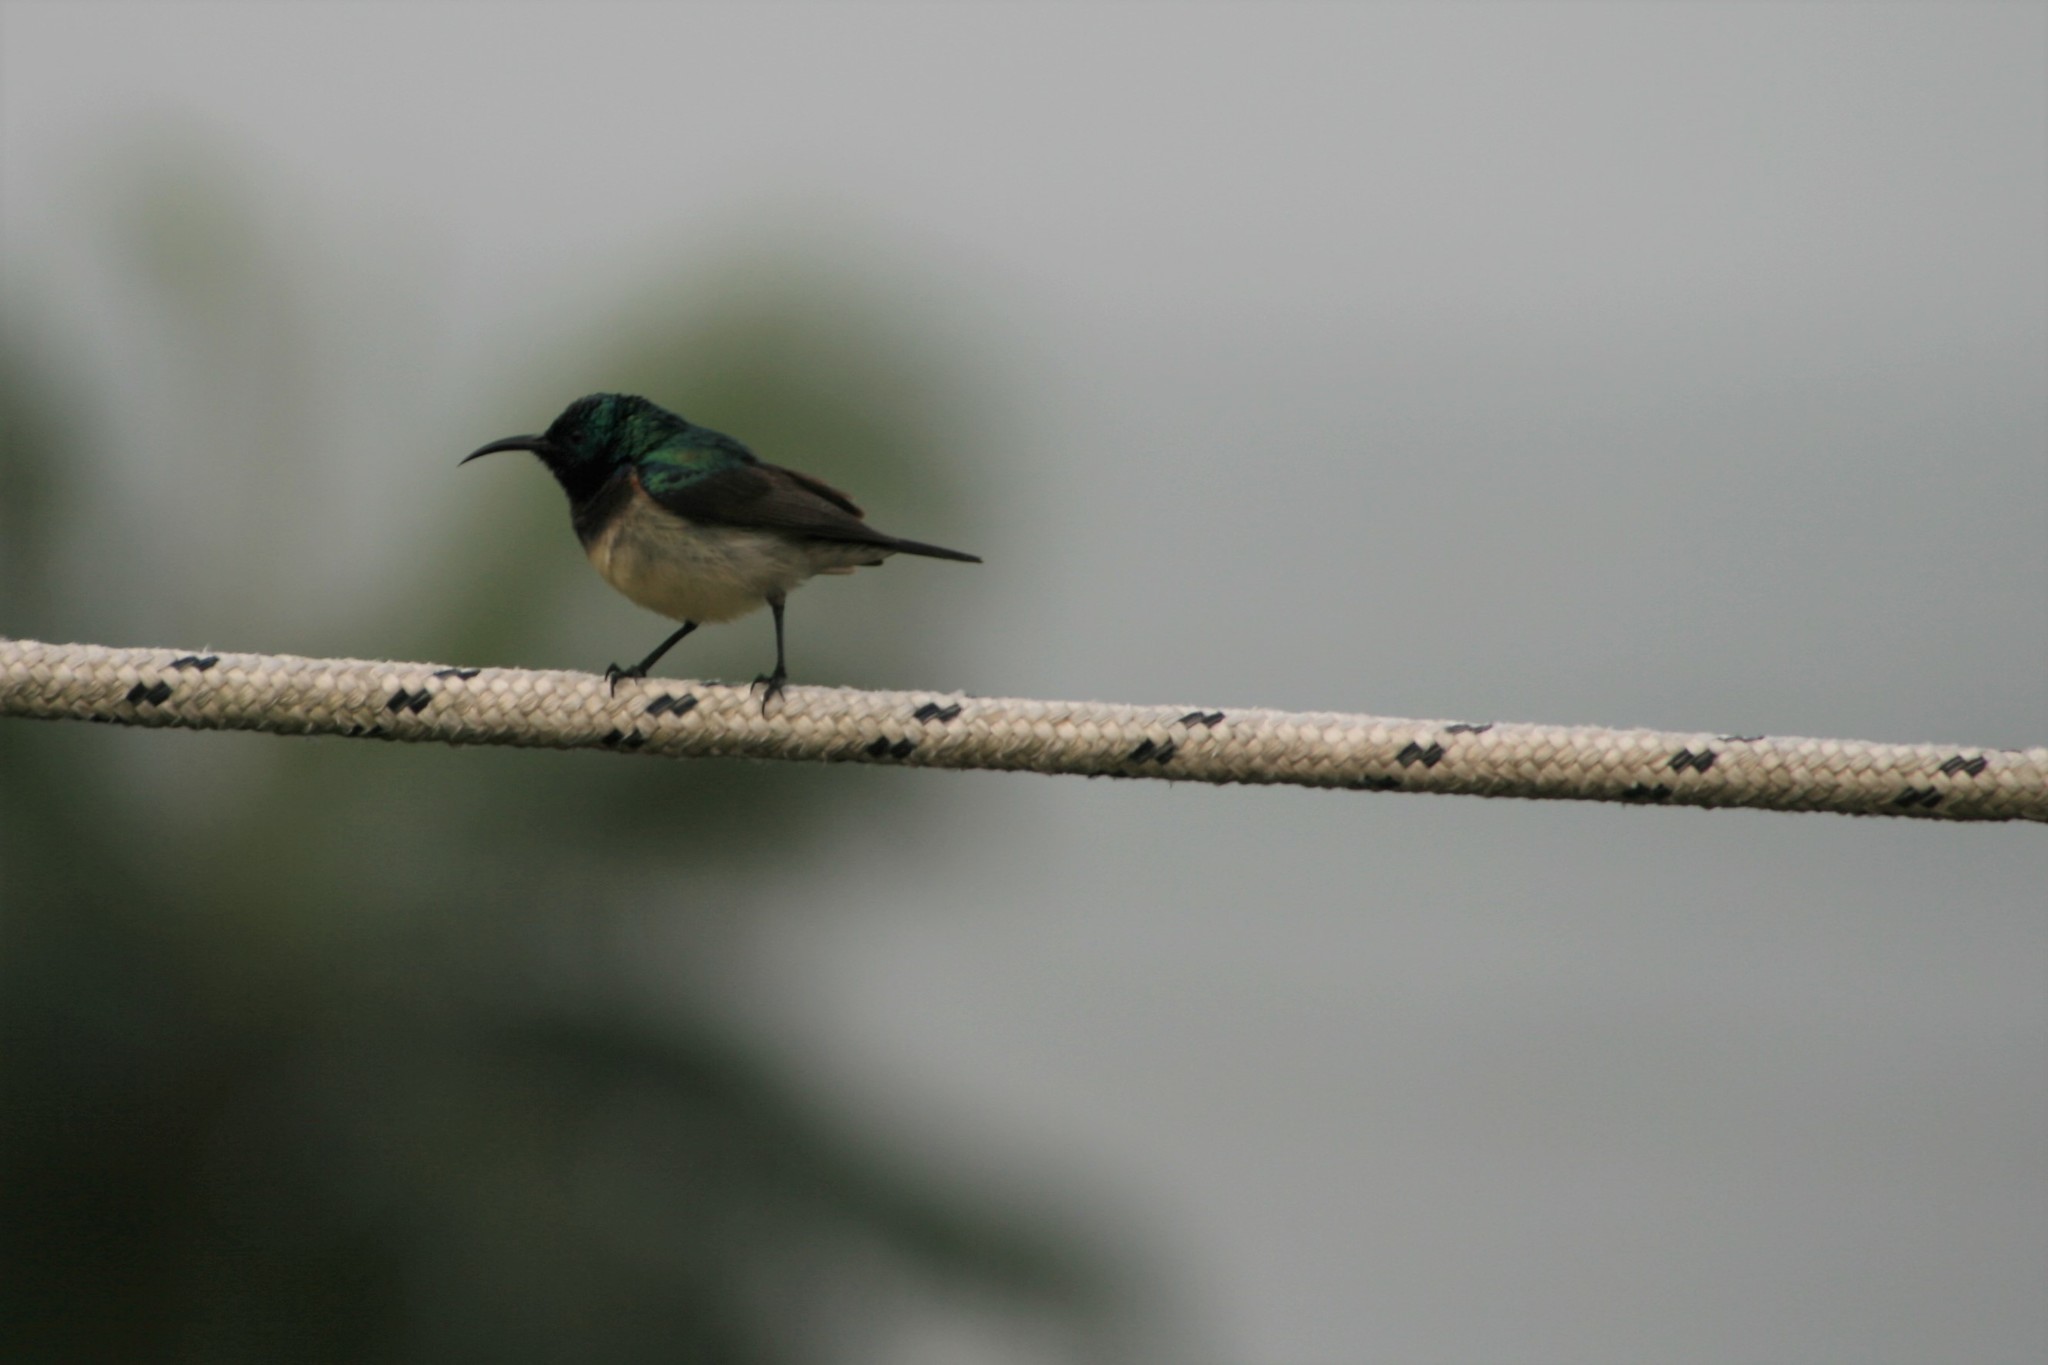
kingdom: Animalia
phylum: Chordata
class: Aves
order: Passeriformes
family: Nectariniidae
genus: Cinnyris
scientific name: Cinnyris venustus
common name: Variable sunbird
